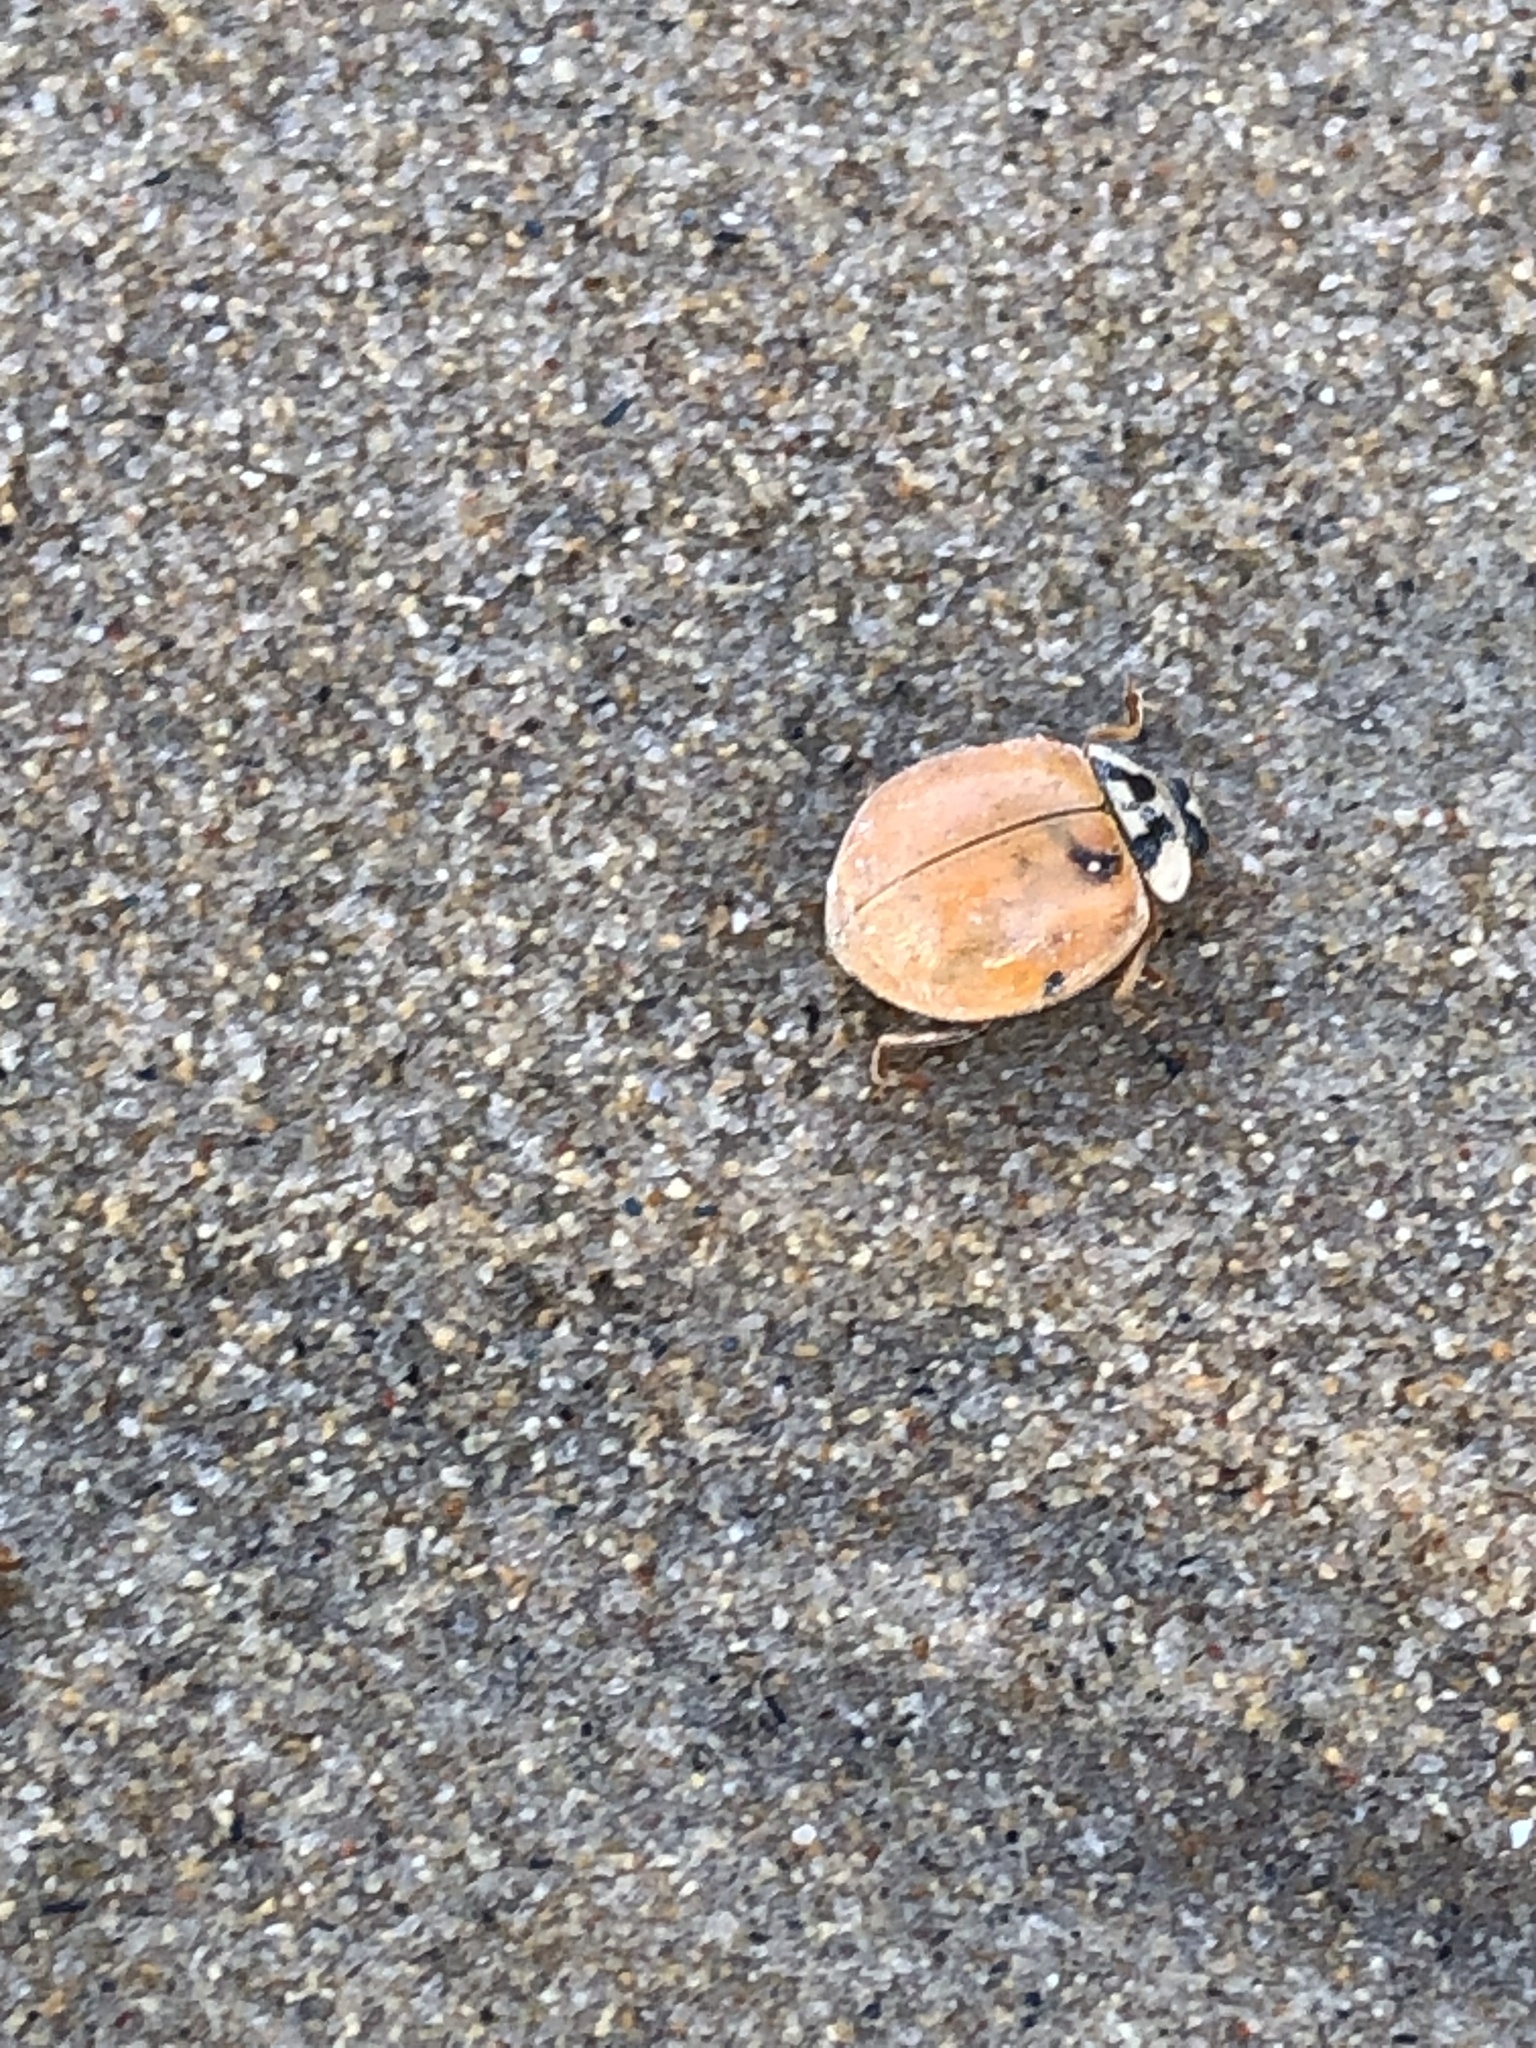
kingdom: Animalia
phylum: Arthropoda
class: Insecta
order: Coleoptera
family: Coccinellidae
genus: Harmonia
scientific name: Harmonia axyridis
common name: Harlequin ladybird
